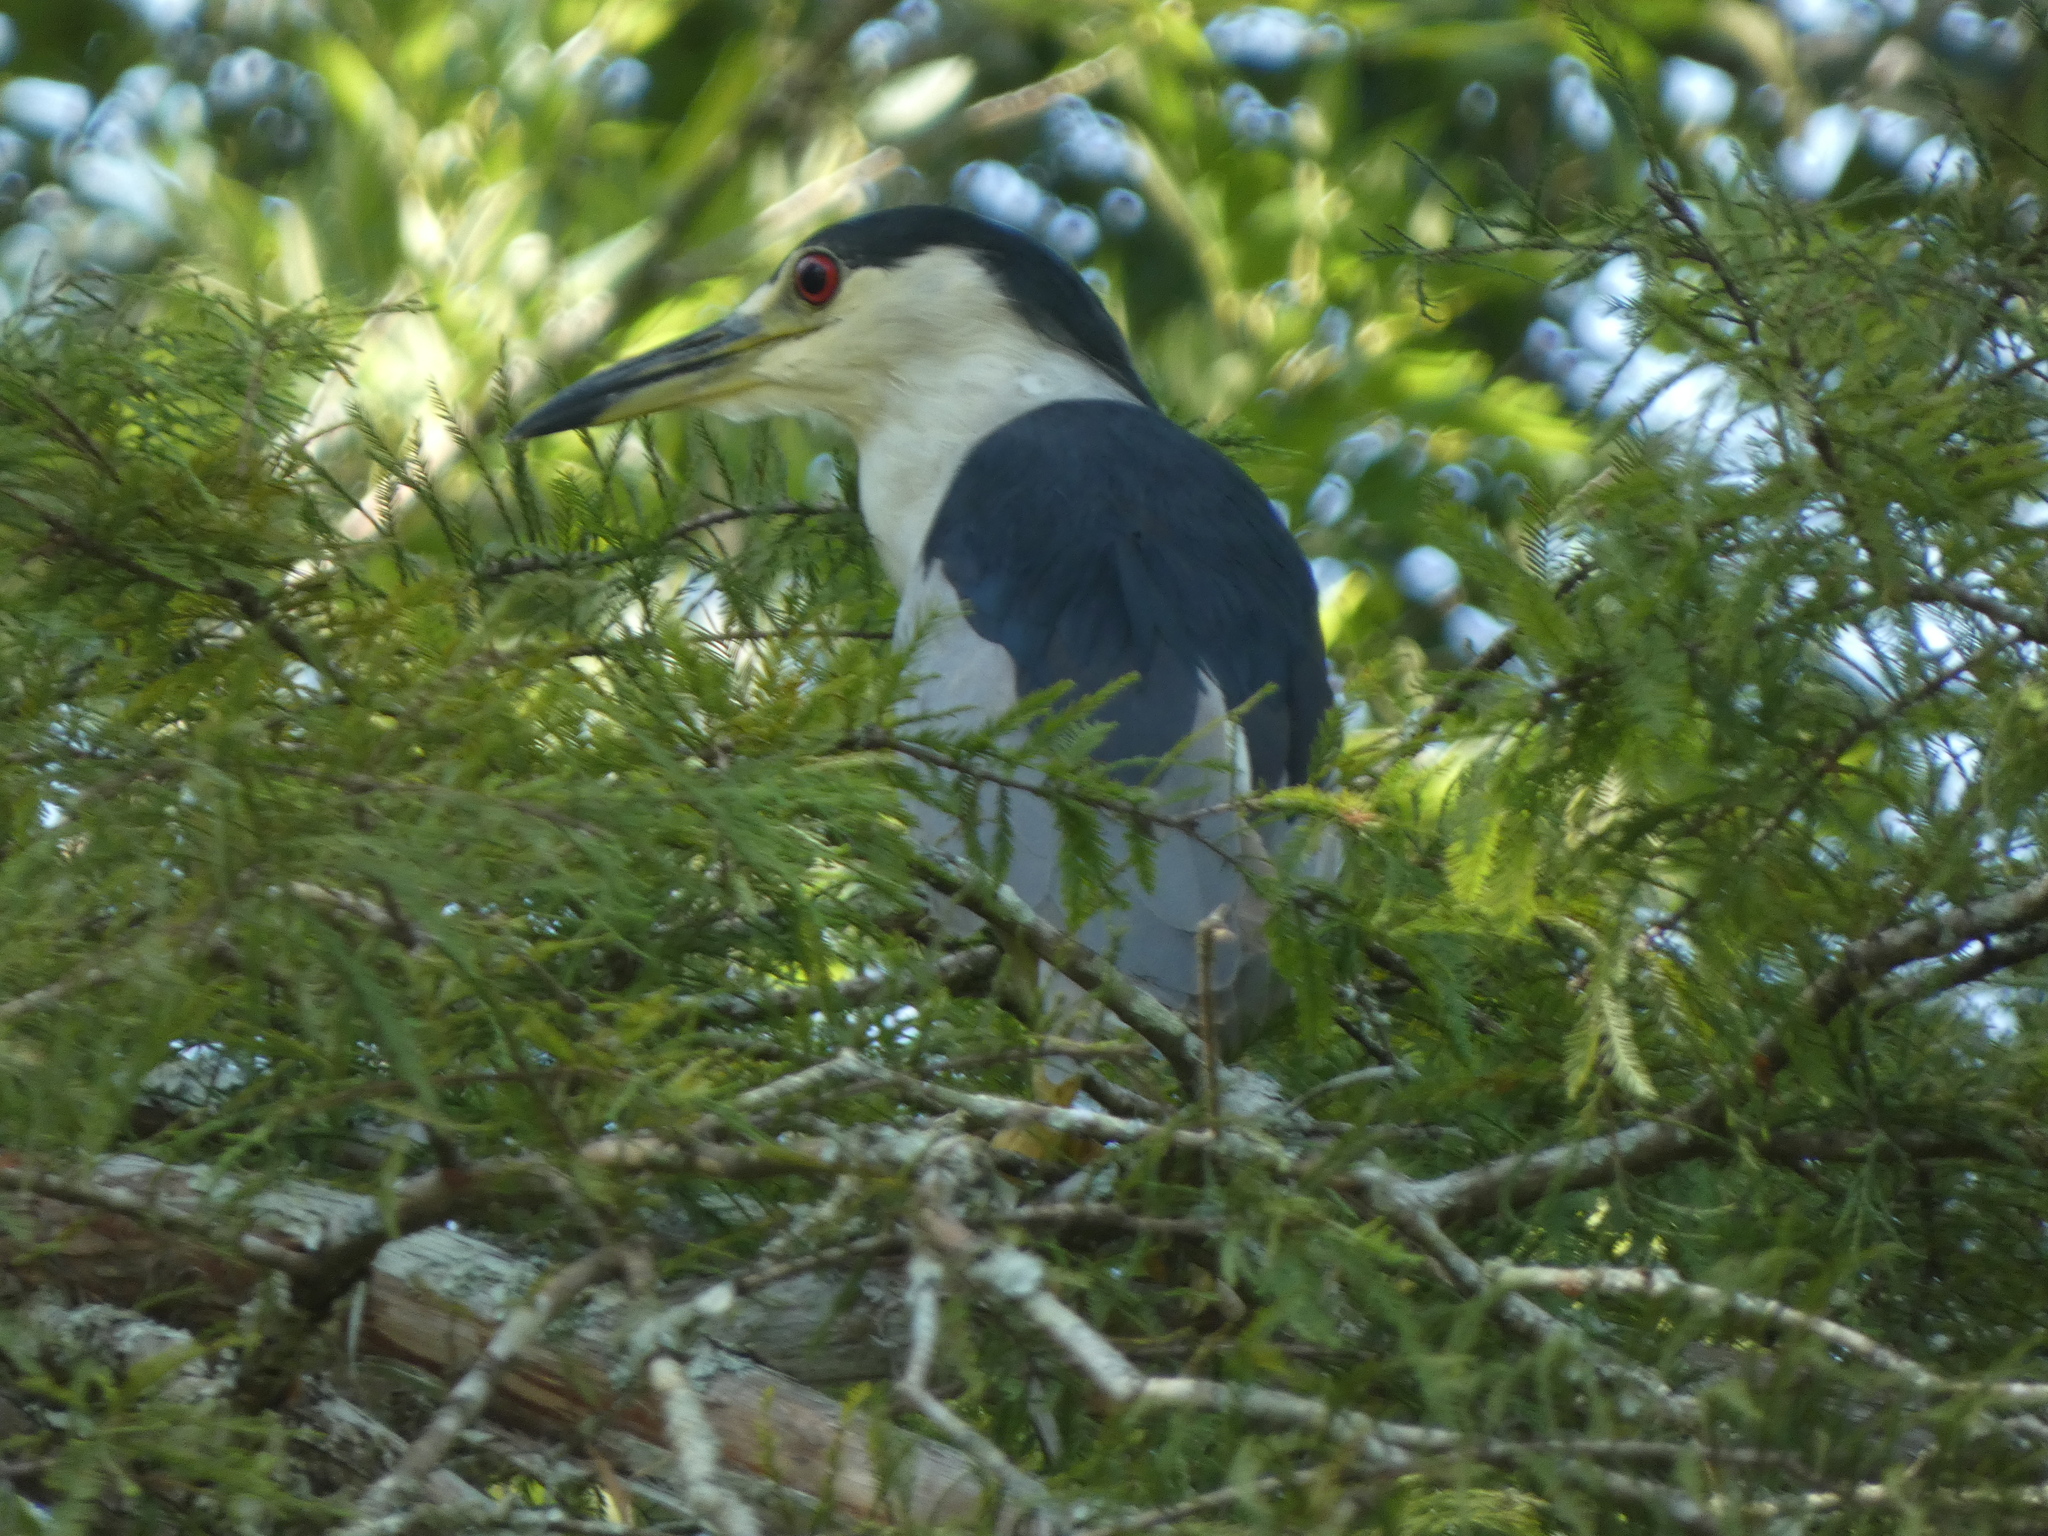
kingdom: Animalia
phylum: Chordata
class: Aves
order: Pelecaniformes
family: Ardeidae
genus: Nycticorax
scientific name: Nycticorax nycticorax
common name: Black-crowned night heron
